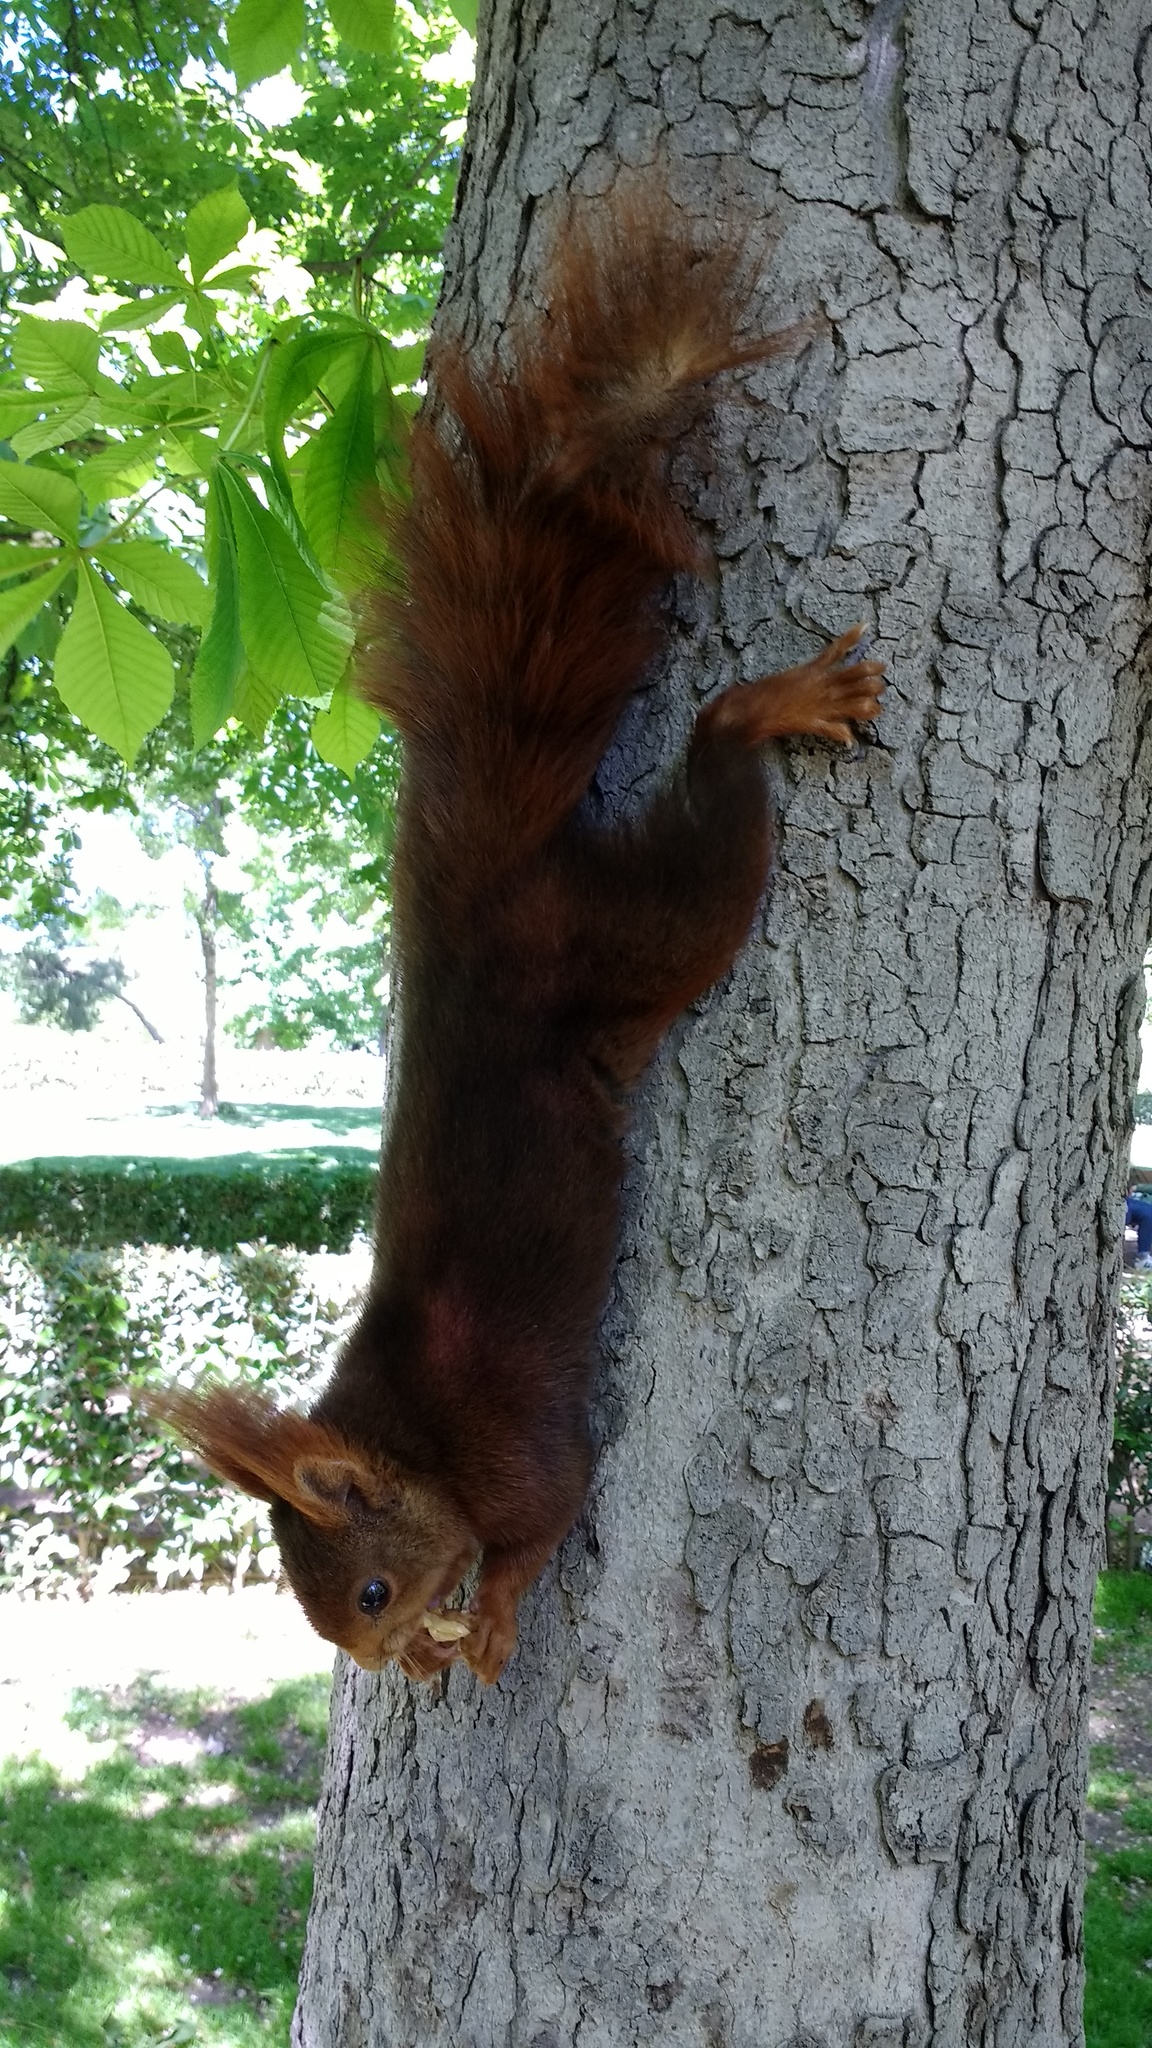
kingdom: Animalia
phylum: Chordata
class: Mammalia
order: Rodentia
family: Sciuridae
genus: Sciurus
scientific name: Sciurus vulgaris
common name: Eurasian red squirrel
